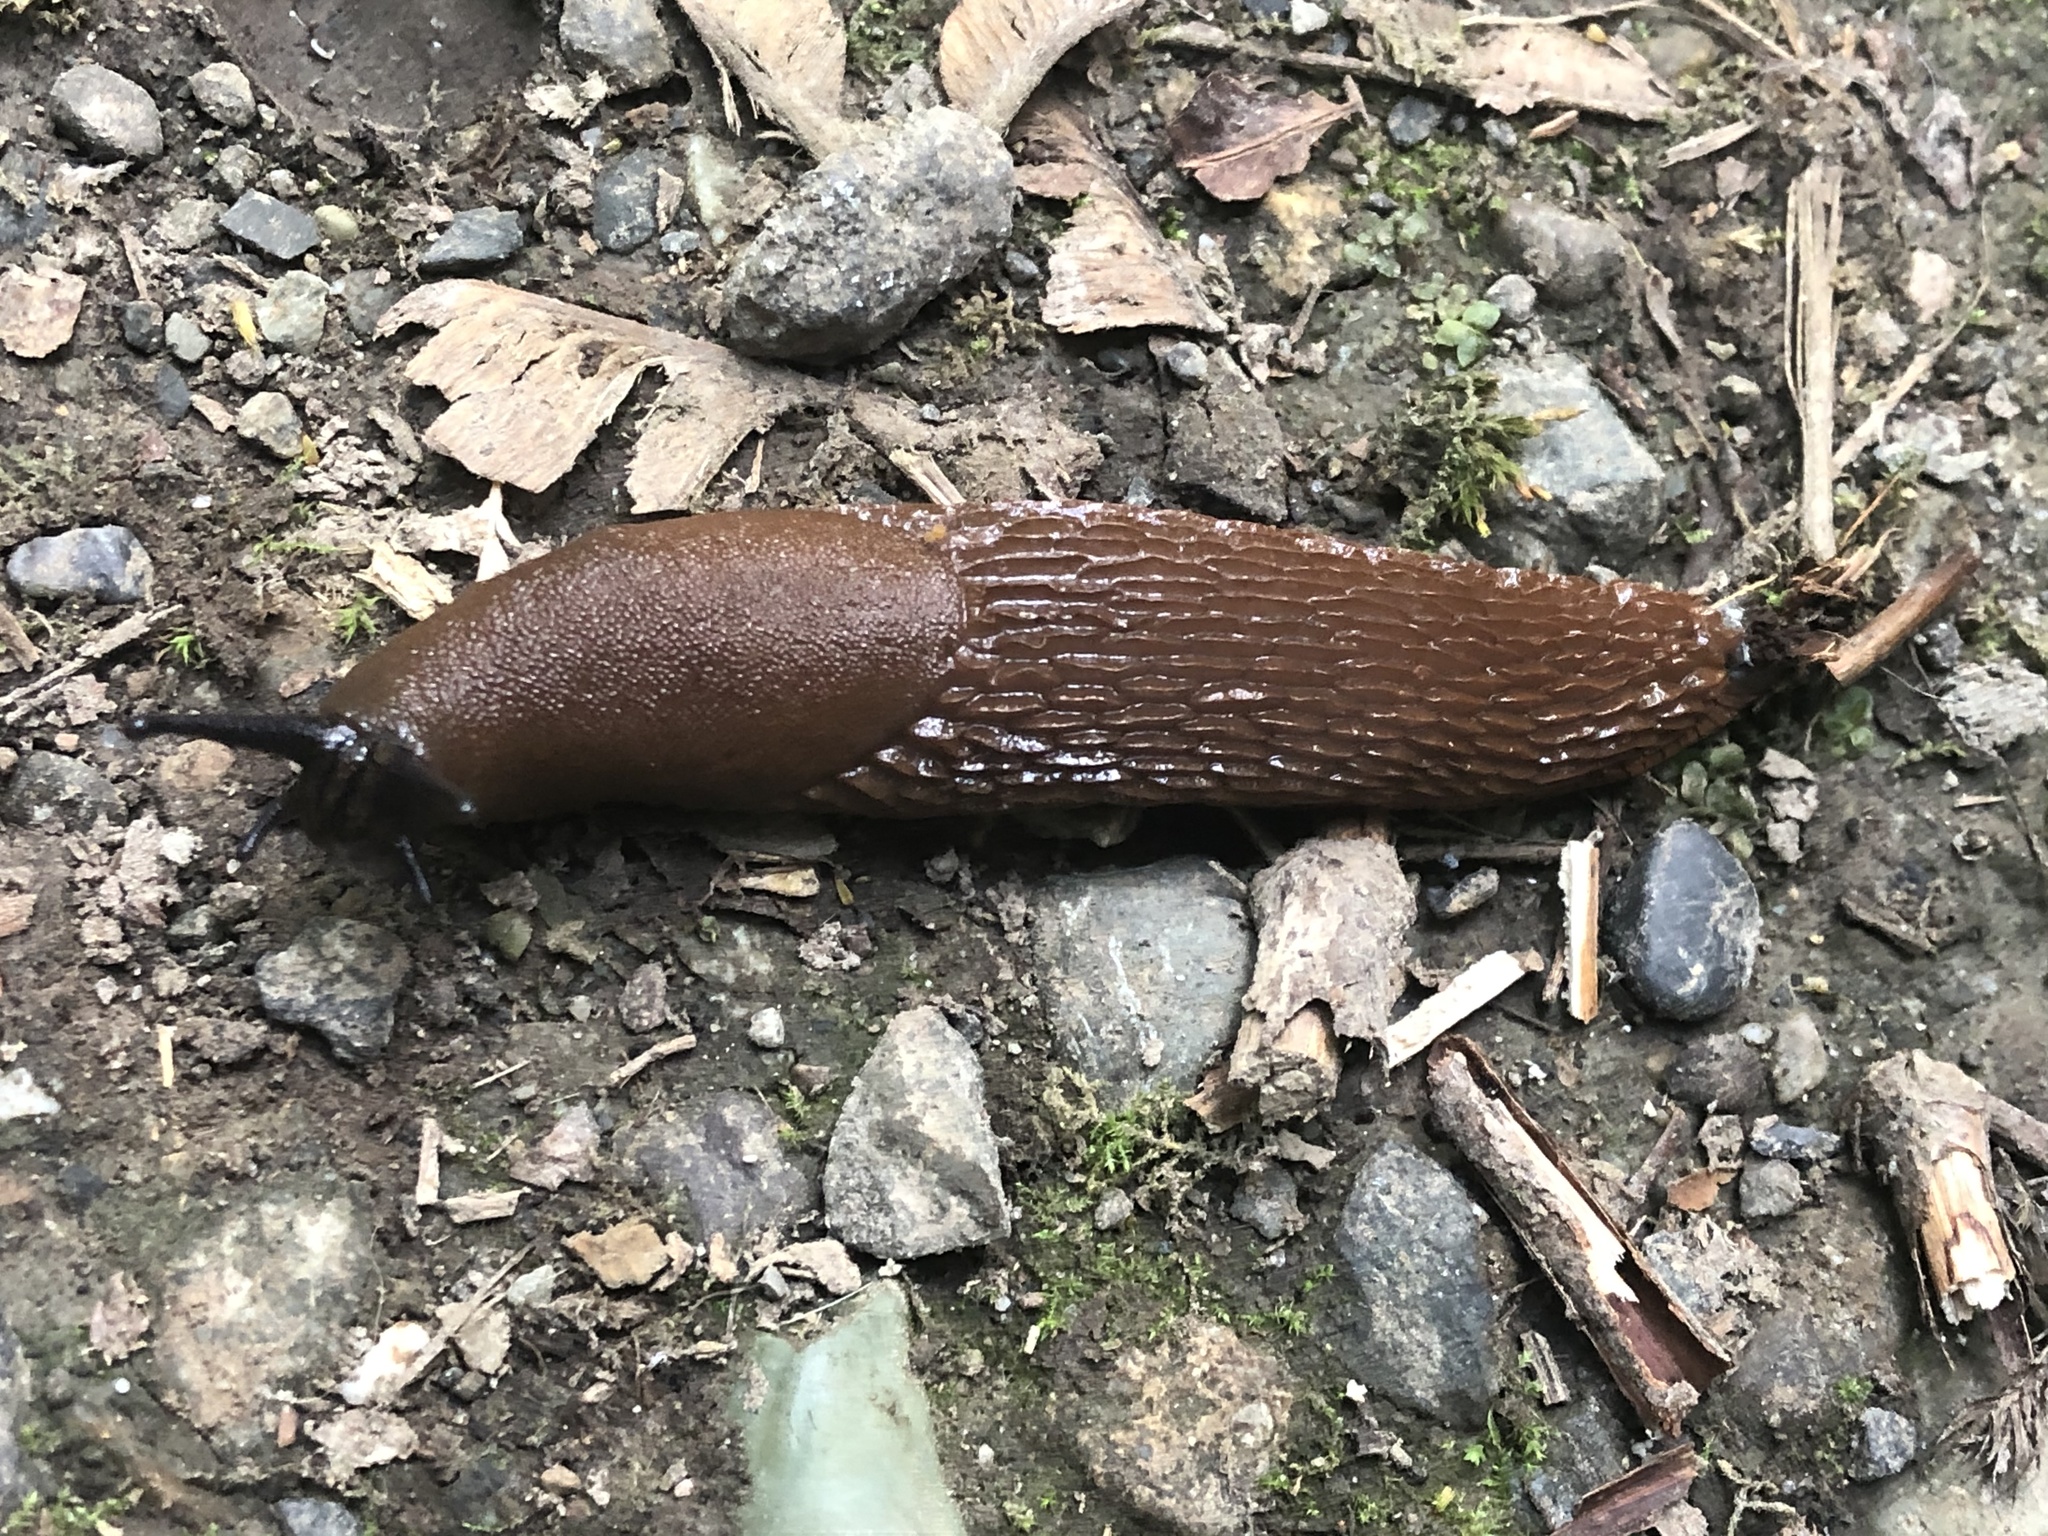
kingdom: Animalia
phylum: Mollusca
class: Gastropoda
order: Stylommatophora
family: Arionidae
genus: Arion
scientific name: Arion rufus
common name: Chocolate arion
